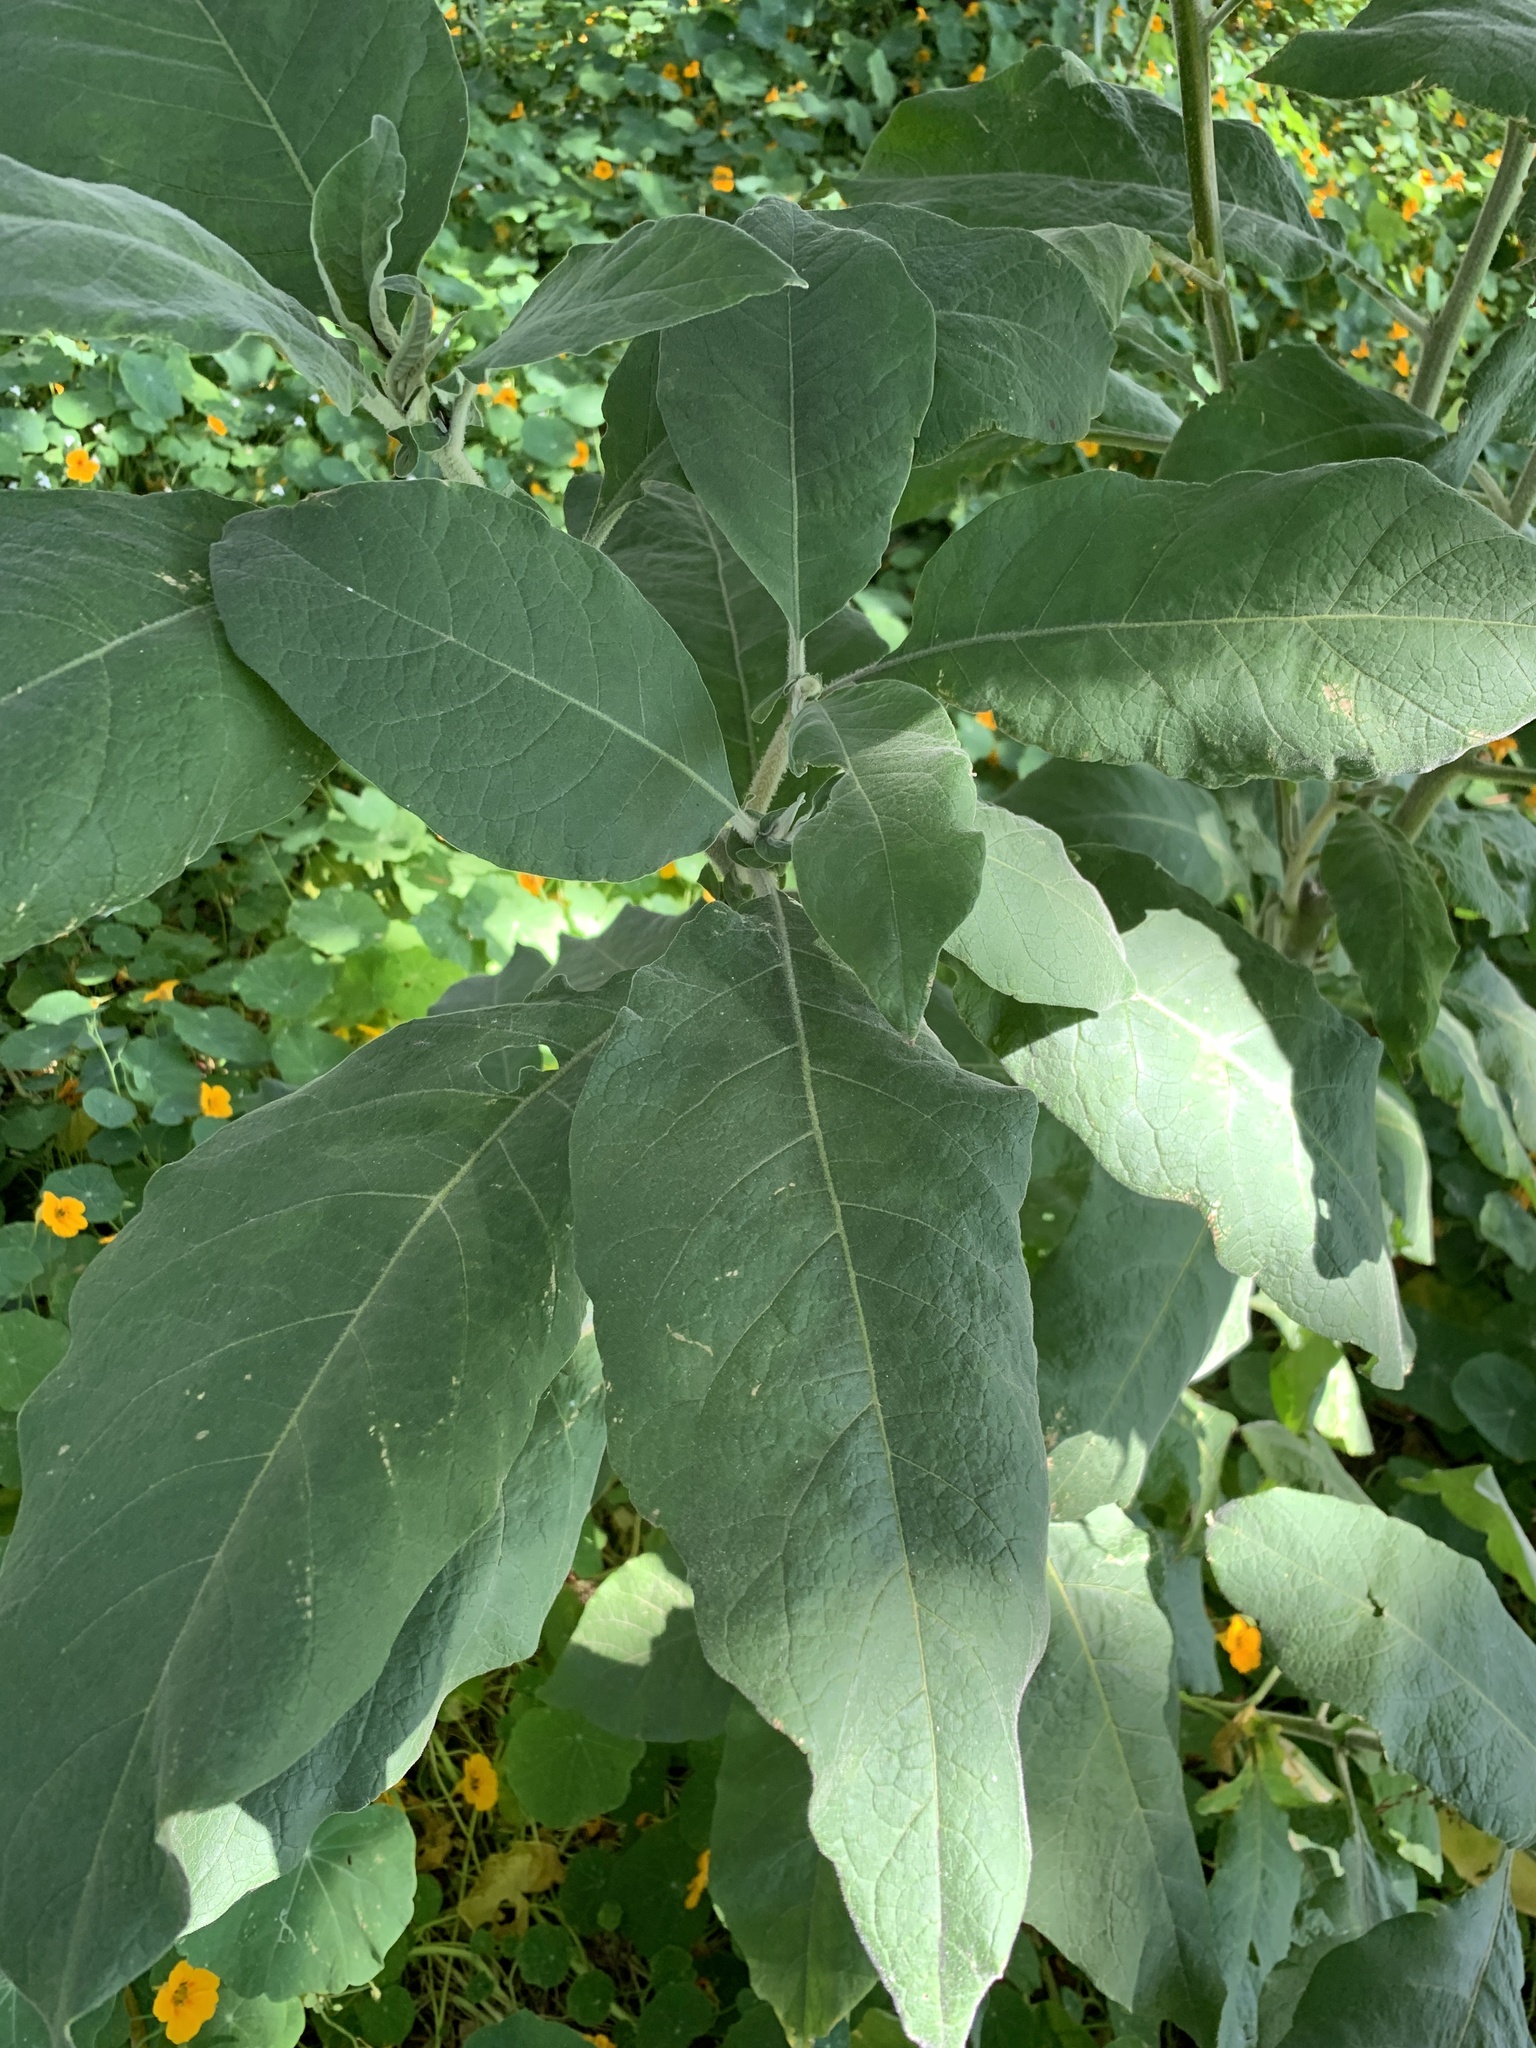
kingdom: Plantae
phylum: Tracheophyta
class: Magnoliopsida
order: Solanales
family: Solanaceae
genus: Solanum
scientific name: Solanum mauritianum
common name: Earleaf nightshade
